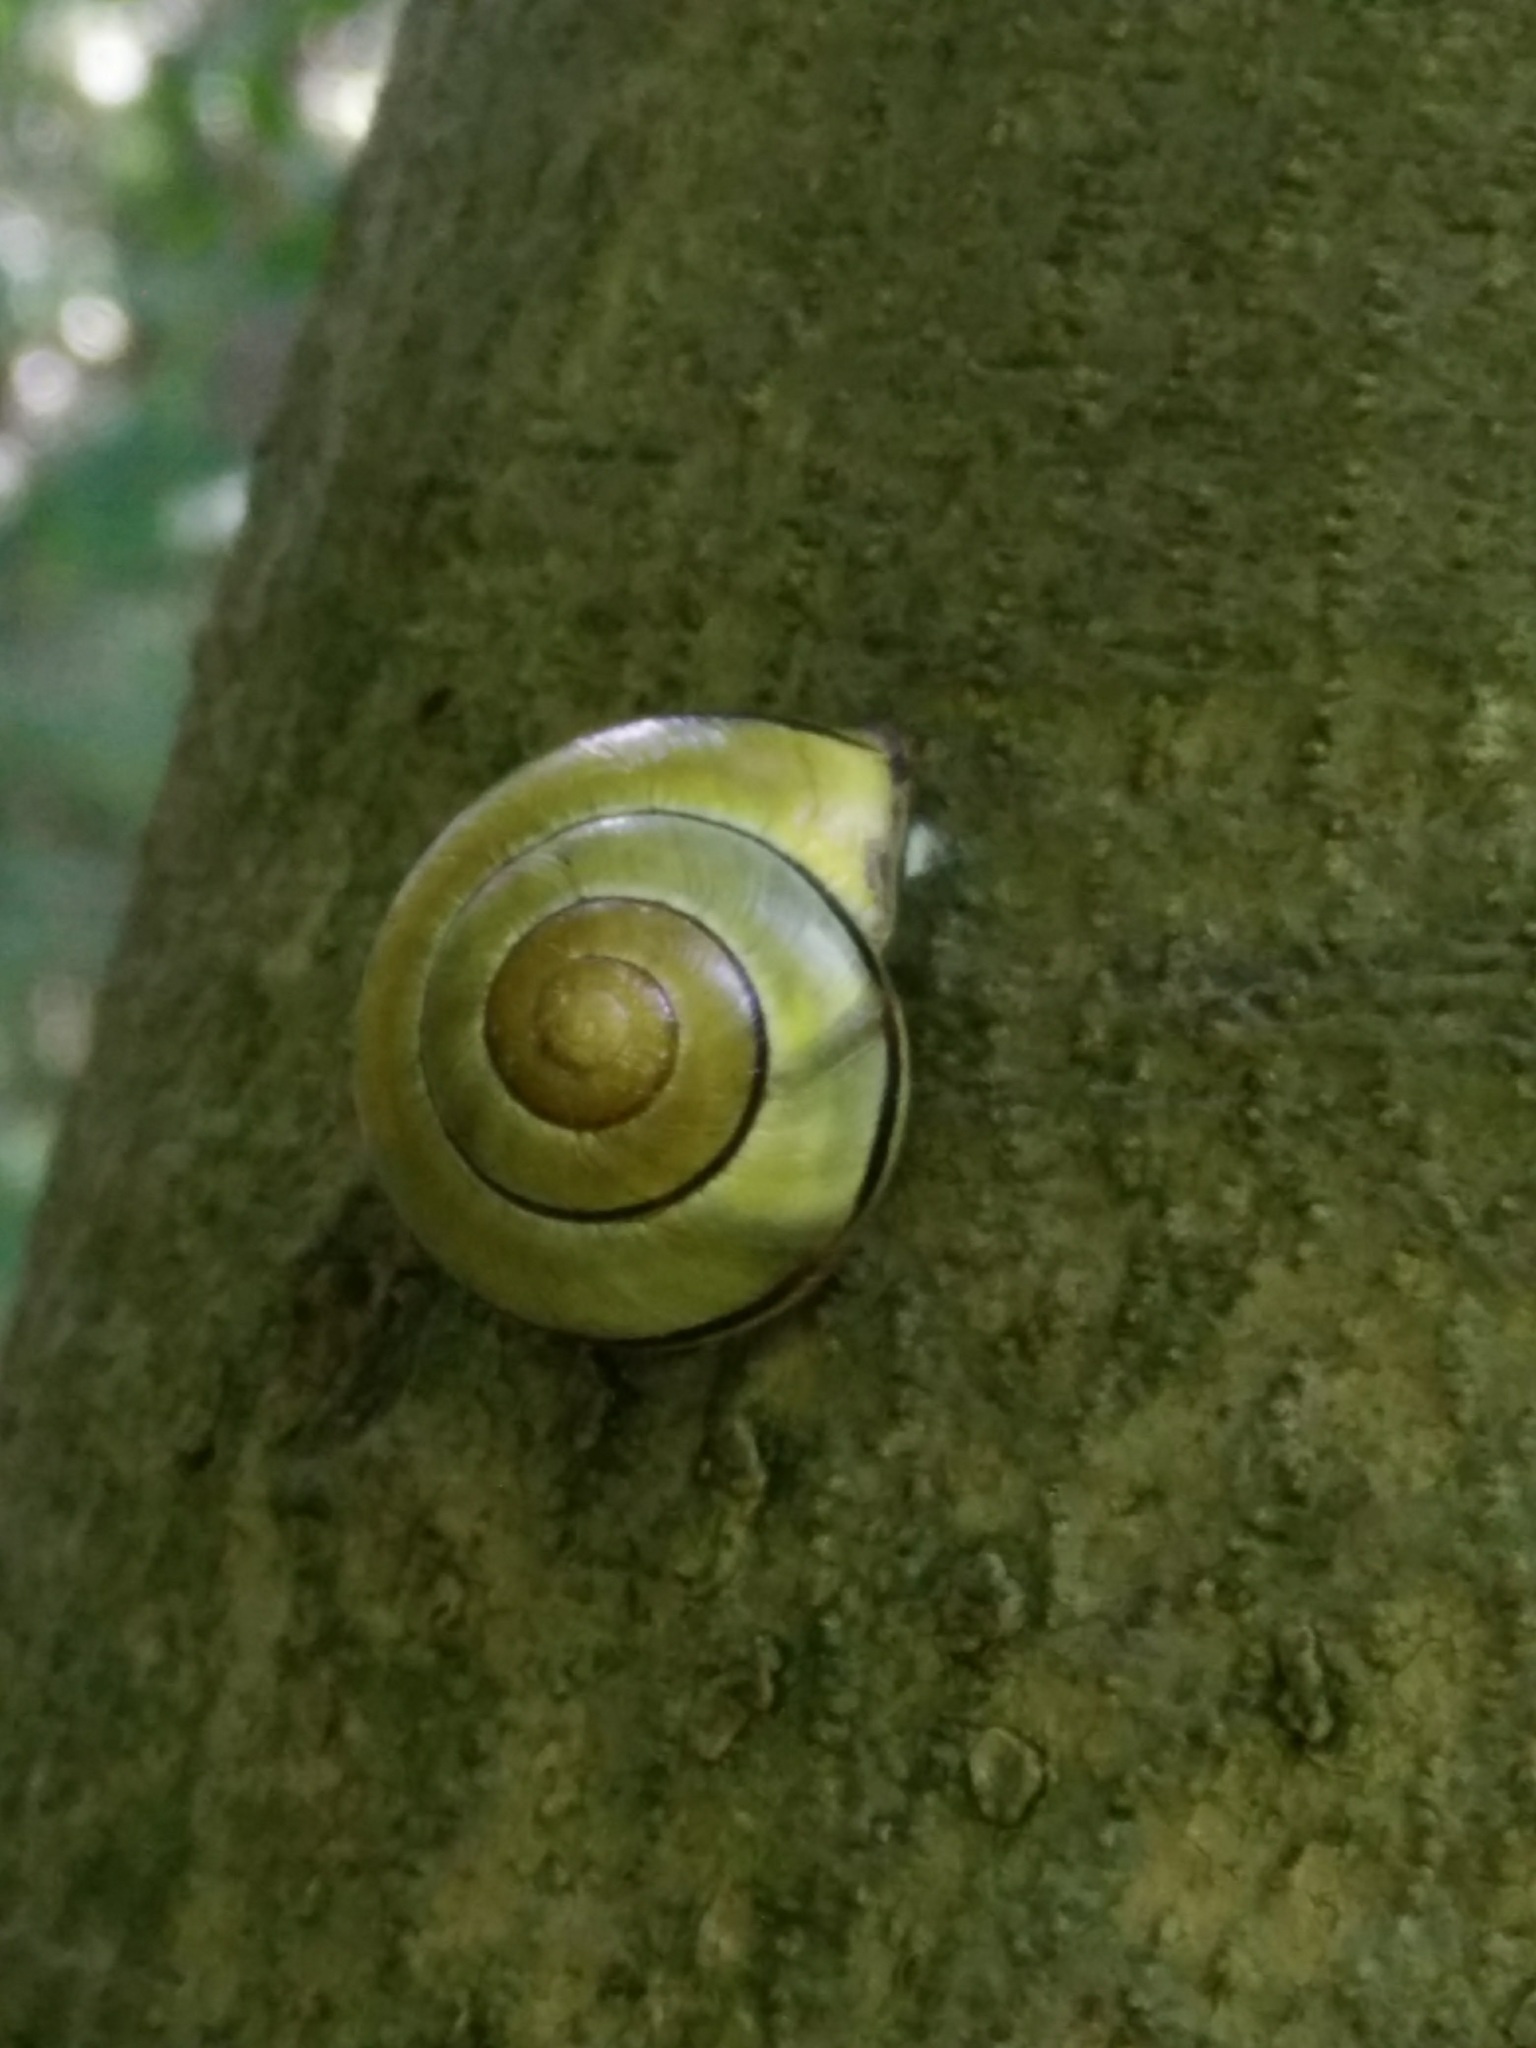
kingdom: Animalia
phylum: Mollusca
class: Gastropoda
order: Stylommatophora
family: Helicidae
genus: Cepaea
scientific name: Cepaea nemoralis
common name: Grovesnail
